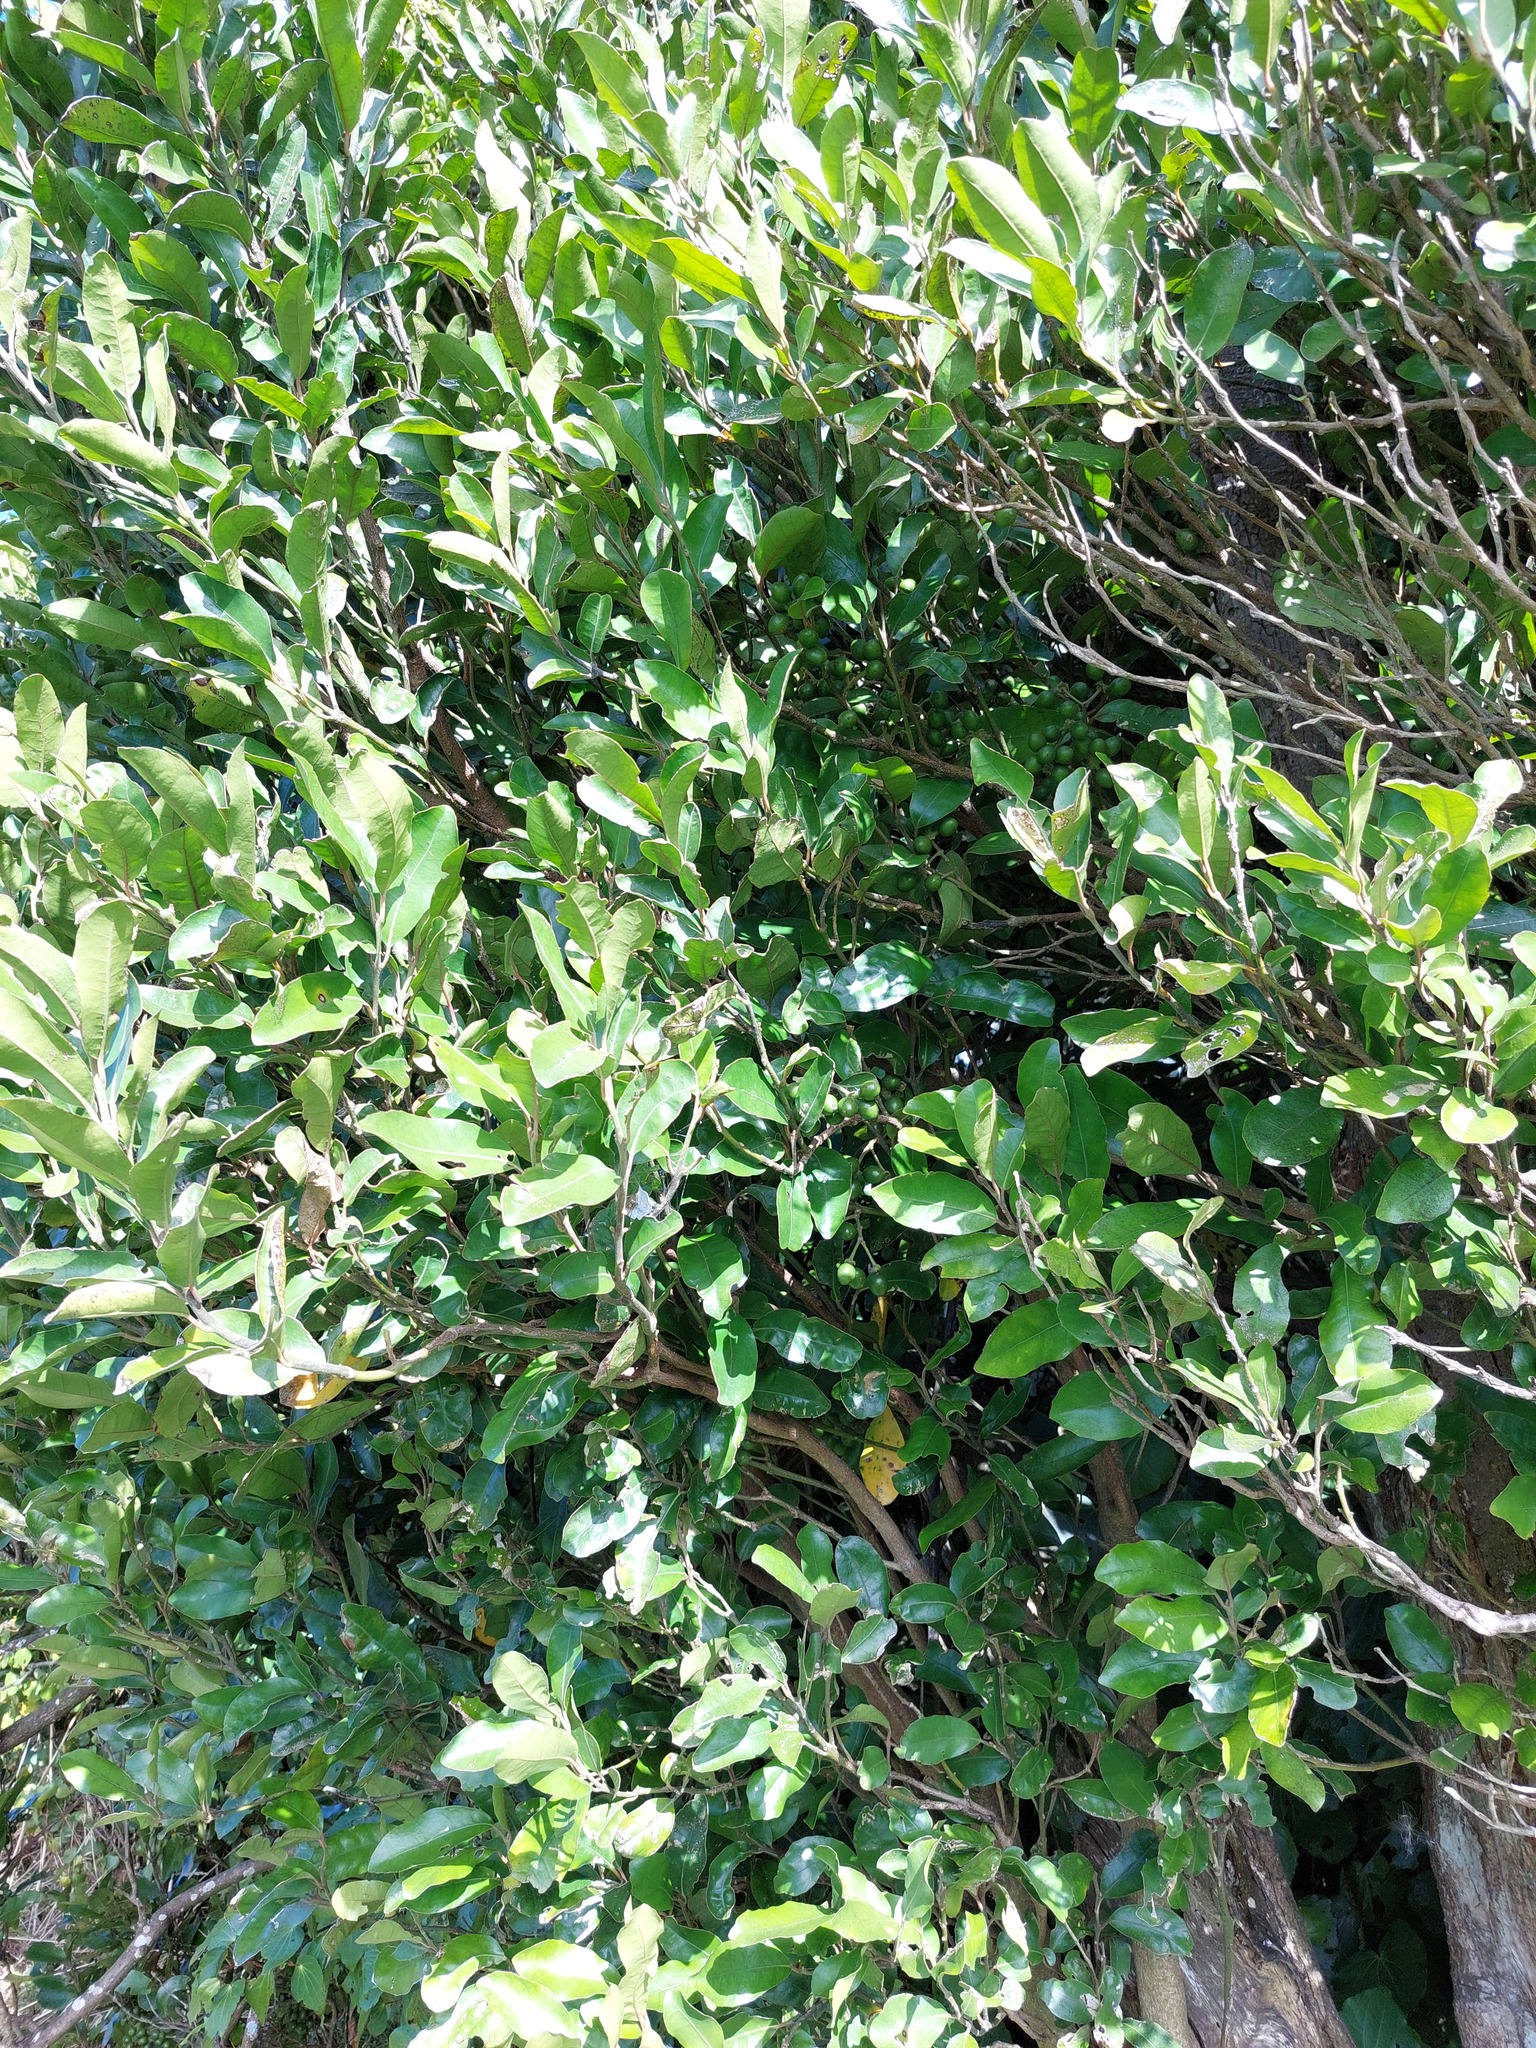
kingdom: Plantae
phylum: Tracheophyta
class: Magnoliopsida
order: Laurales
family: Monimiaceae
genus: Hedycarya
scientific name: Hedycarya arborea
